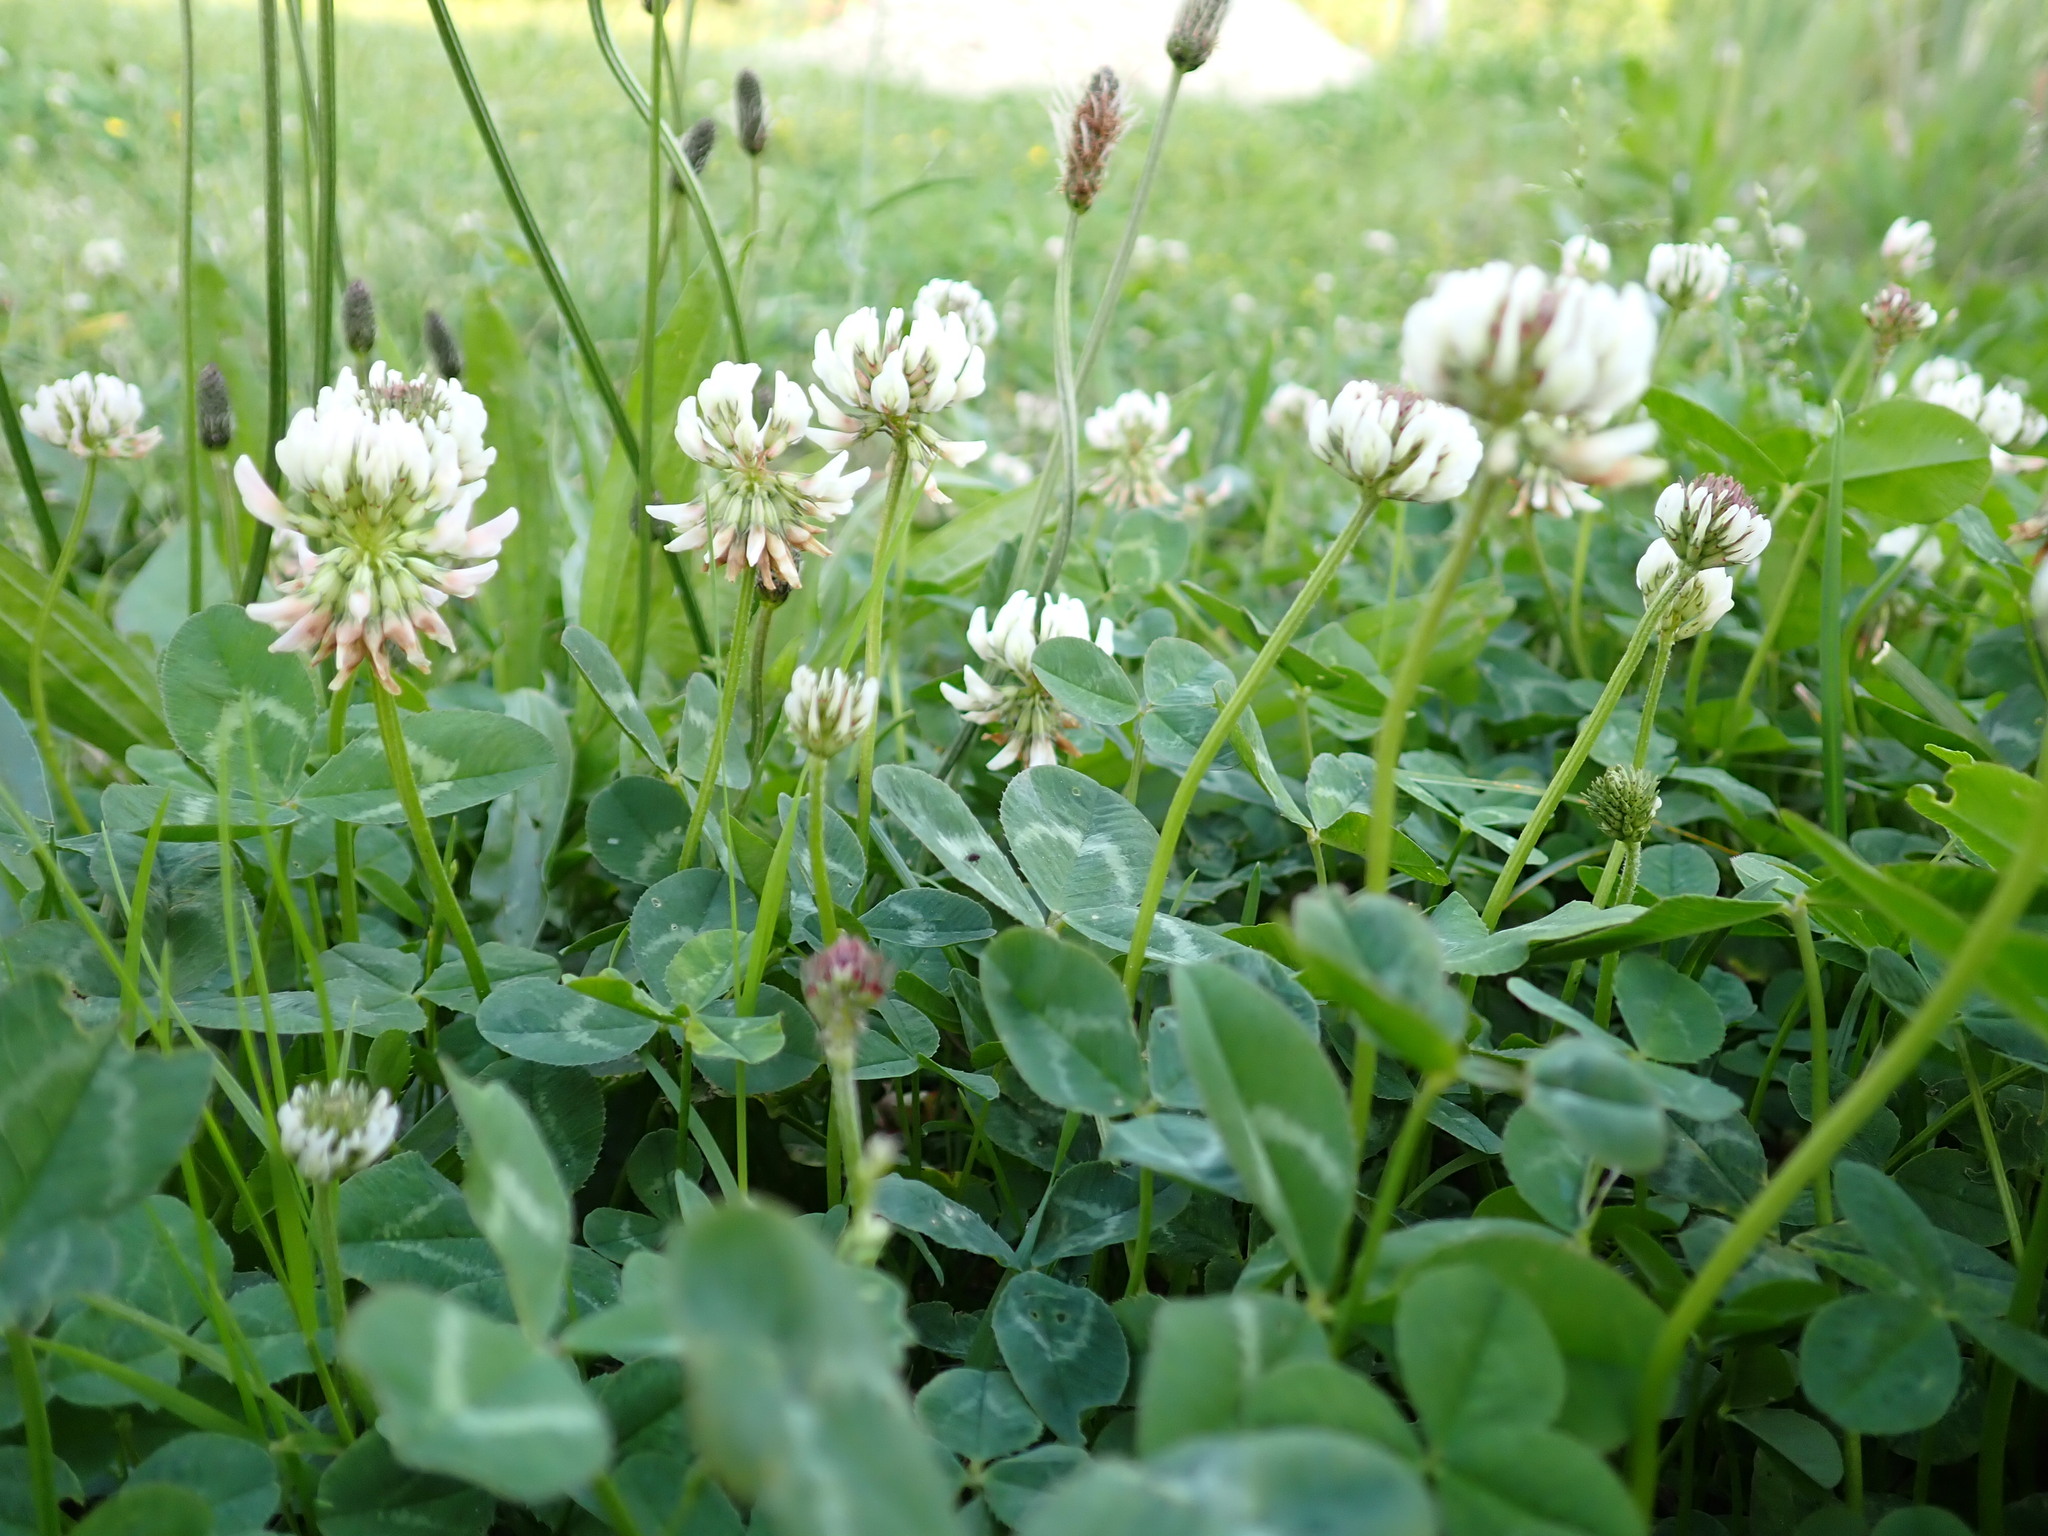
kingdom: Plantae
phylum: Tracheophyta
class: Magnoliopsida
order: Fabales
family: Fabaceae
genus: Trifolium
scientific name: Trifolium repens
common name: White clover
